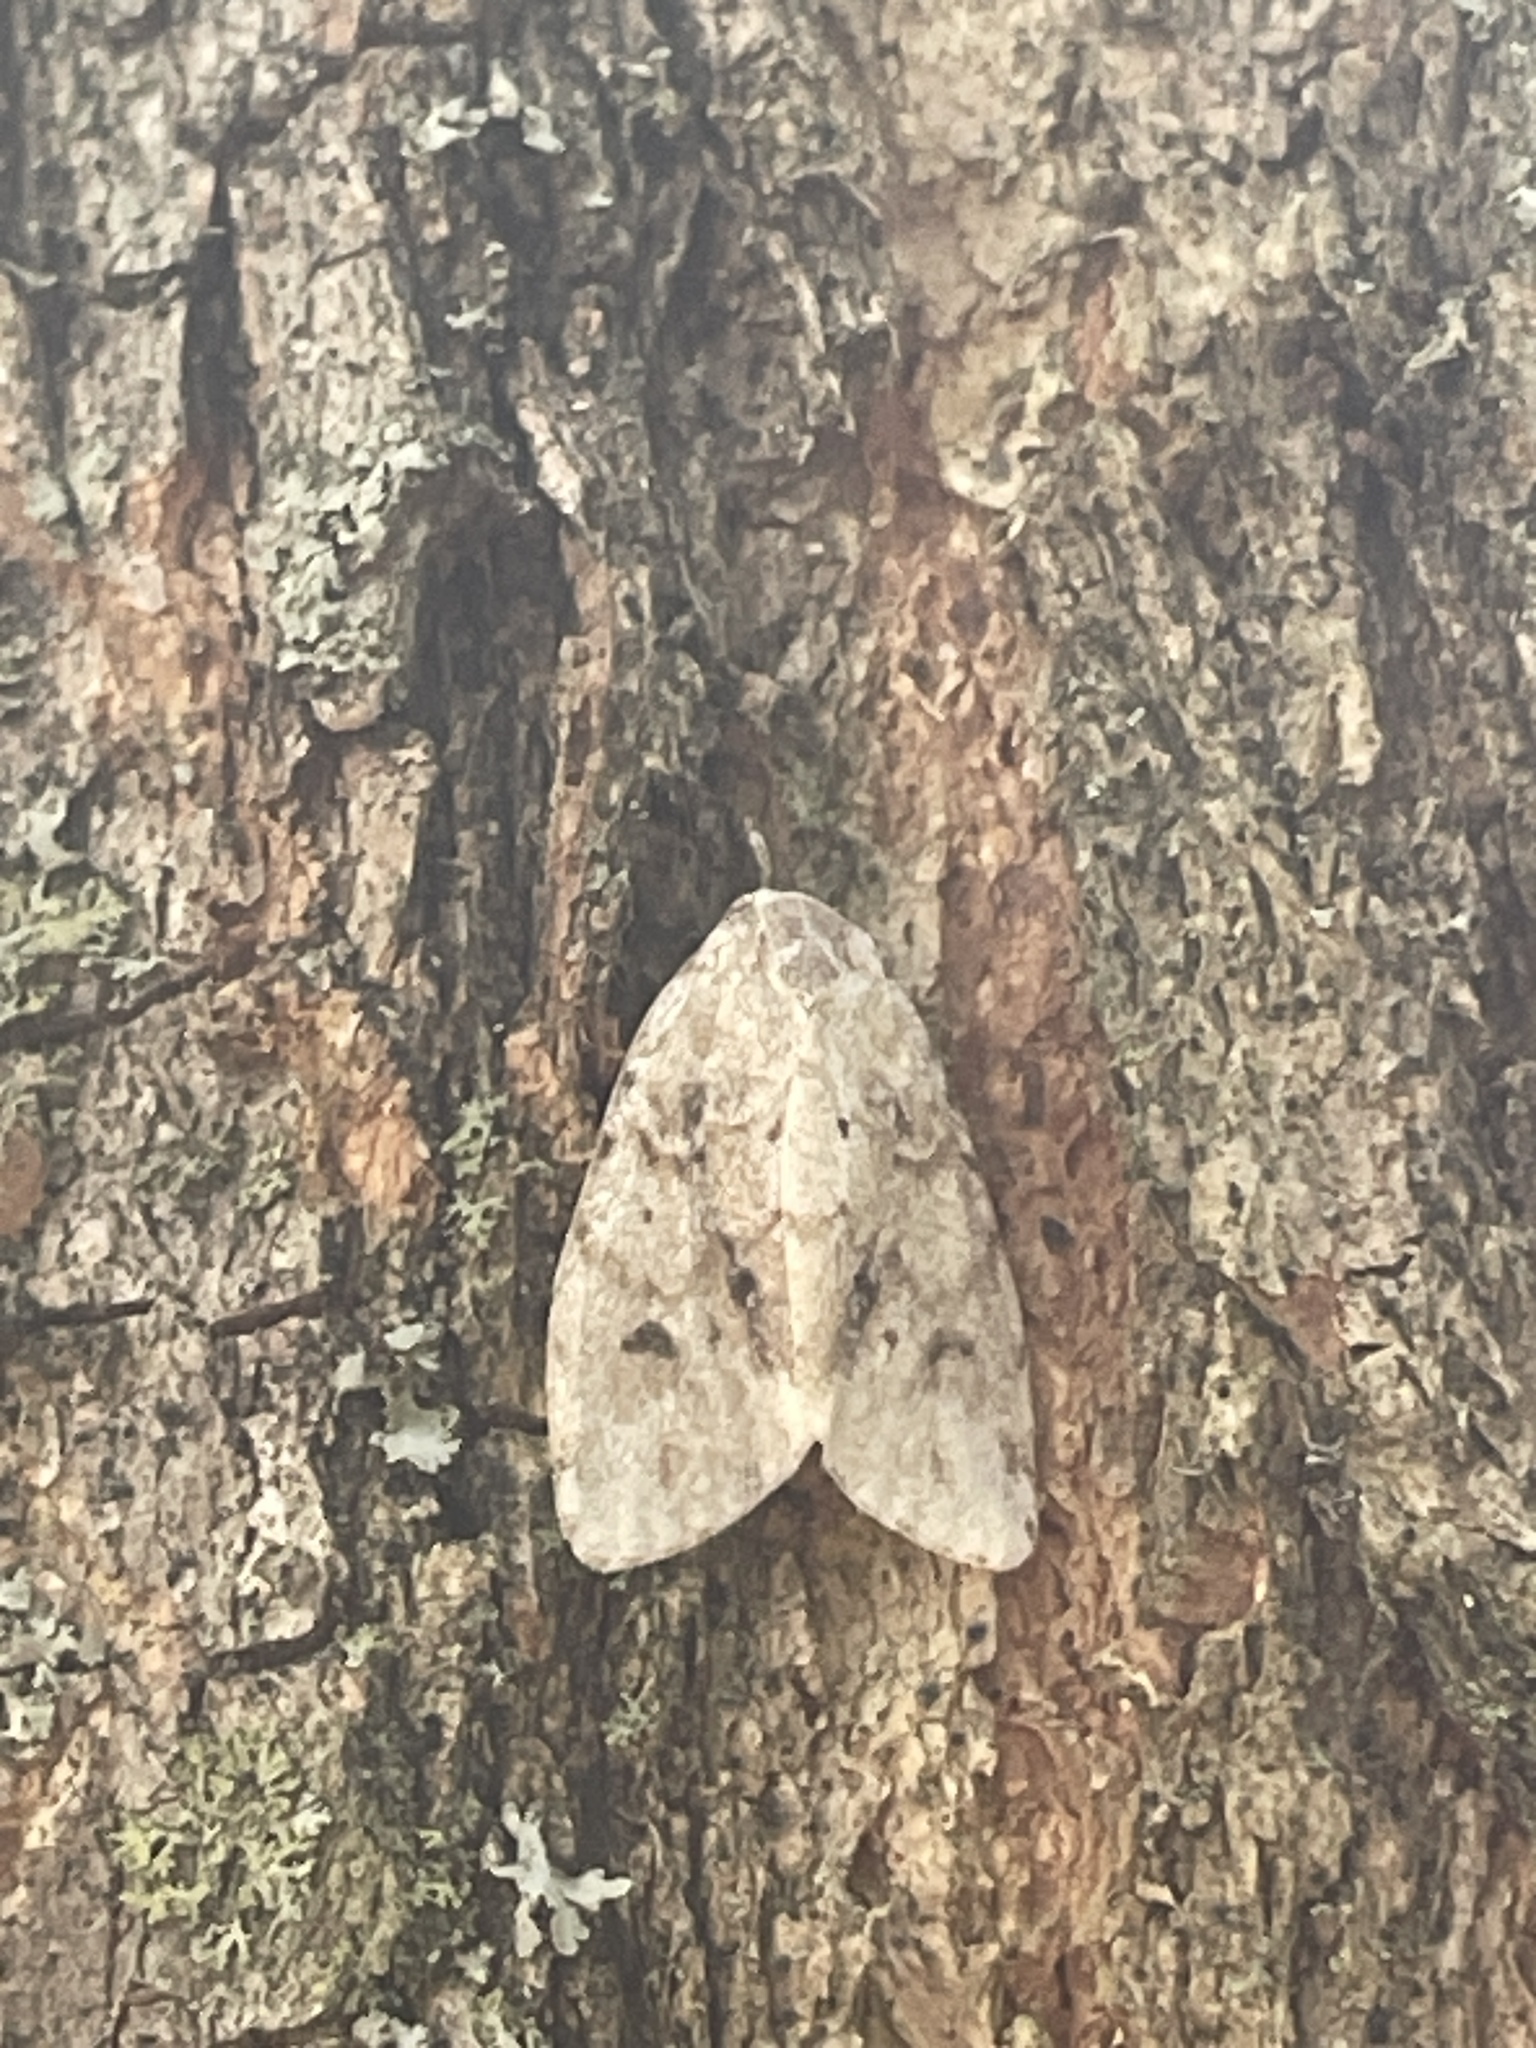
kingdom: Animalia
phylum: Arthropoda
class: Insecta
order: Lepidoptera
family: Erebidae
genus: Clemensia
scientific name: Clemensia albata
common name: Little white lichen moth
